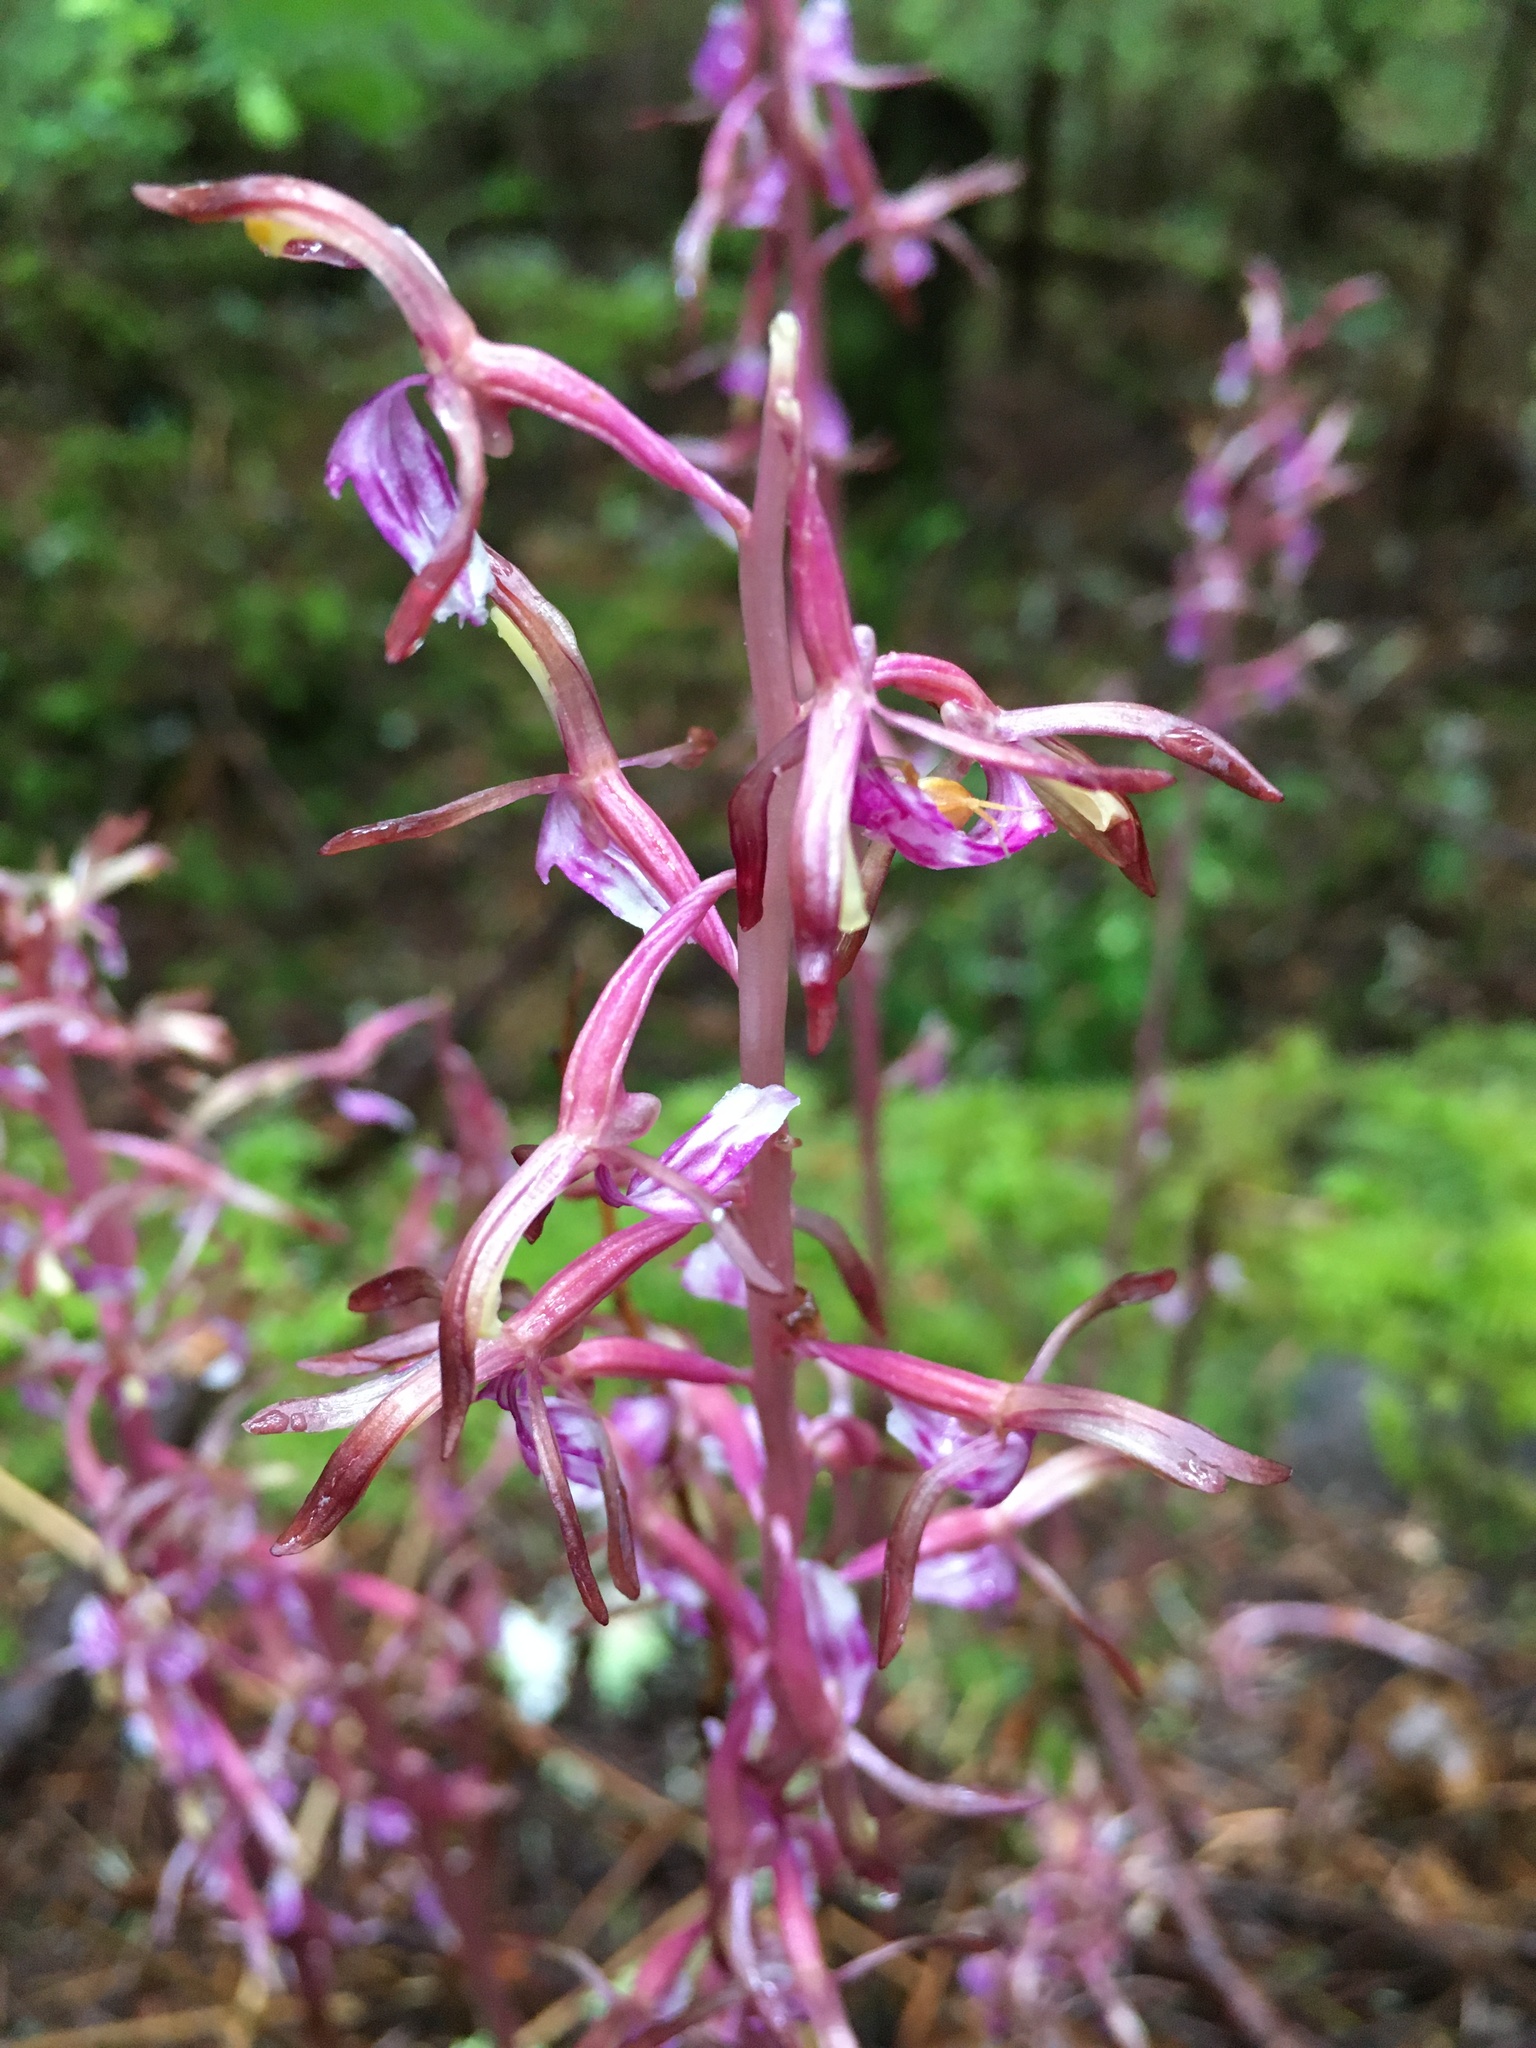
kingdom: Plantae
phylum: Tracheophyta
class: Liliopsida
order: Asparagales
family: Orchidaceae
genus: Corallorhiza
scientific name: Corallorhiza mertensiana
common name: Pacific coralroot
